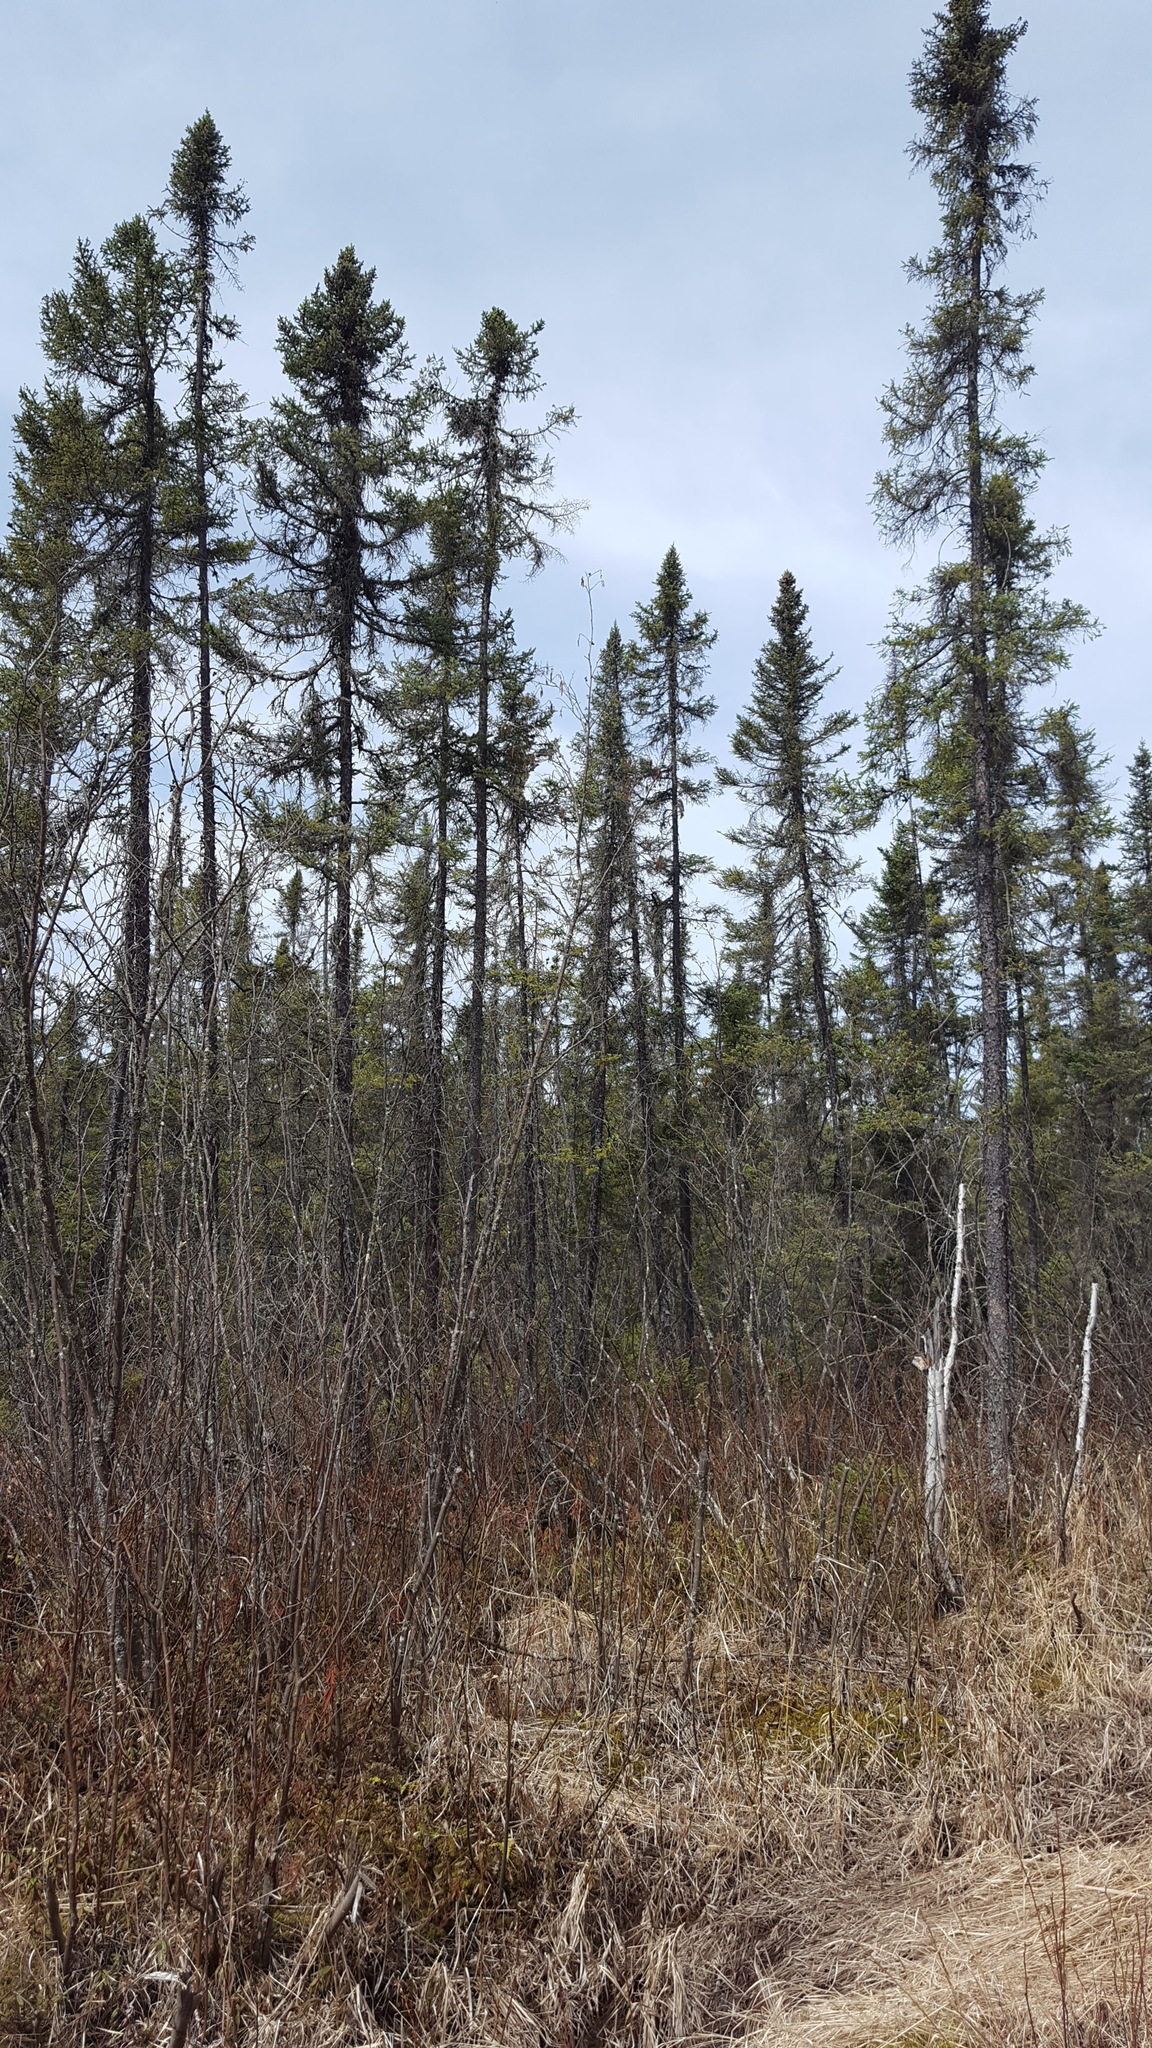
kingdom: Plantae
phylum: Tracheophyta
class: Pinopsida
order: Pinales
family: Pinaceae
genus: Picea
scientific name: Picea mariana
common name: Black spruce
